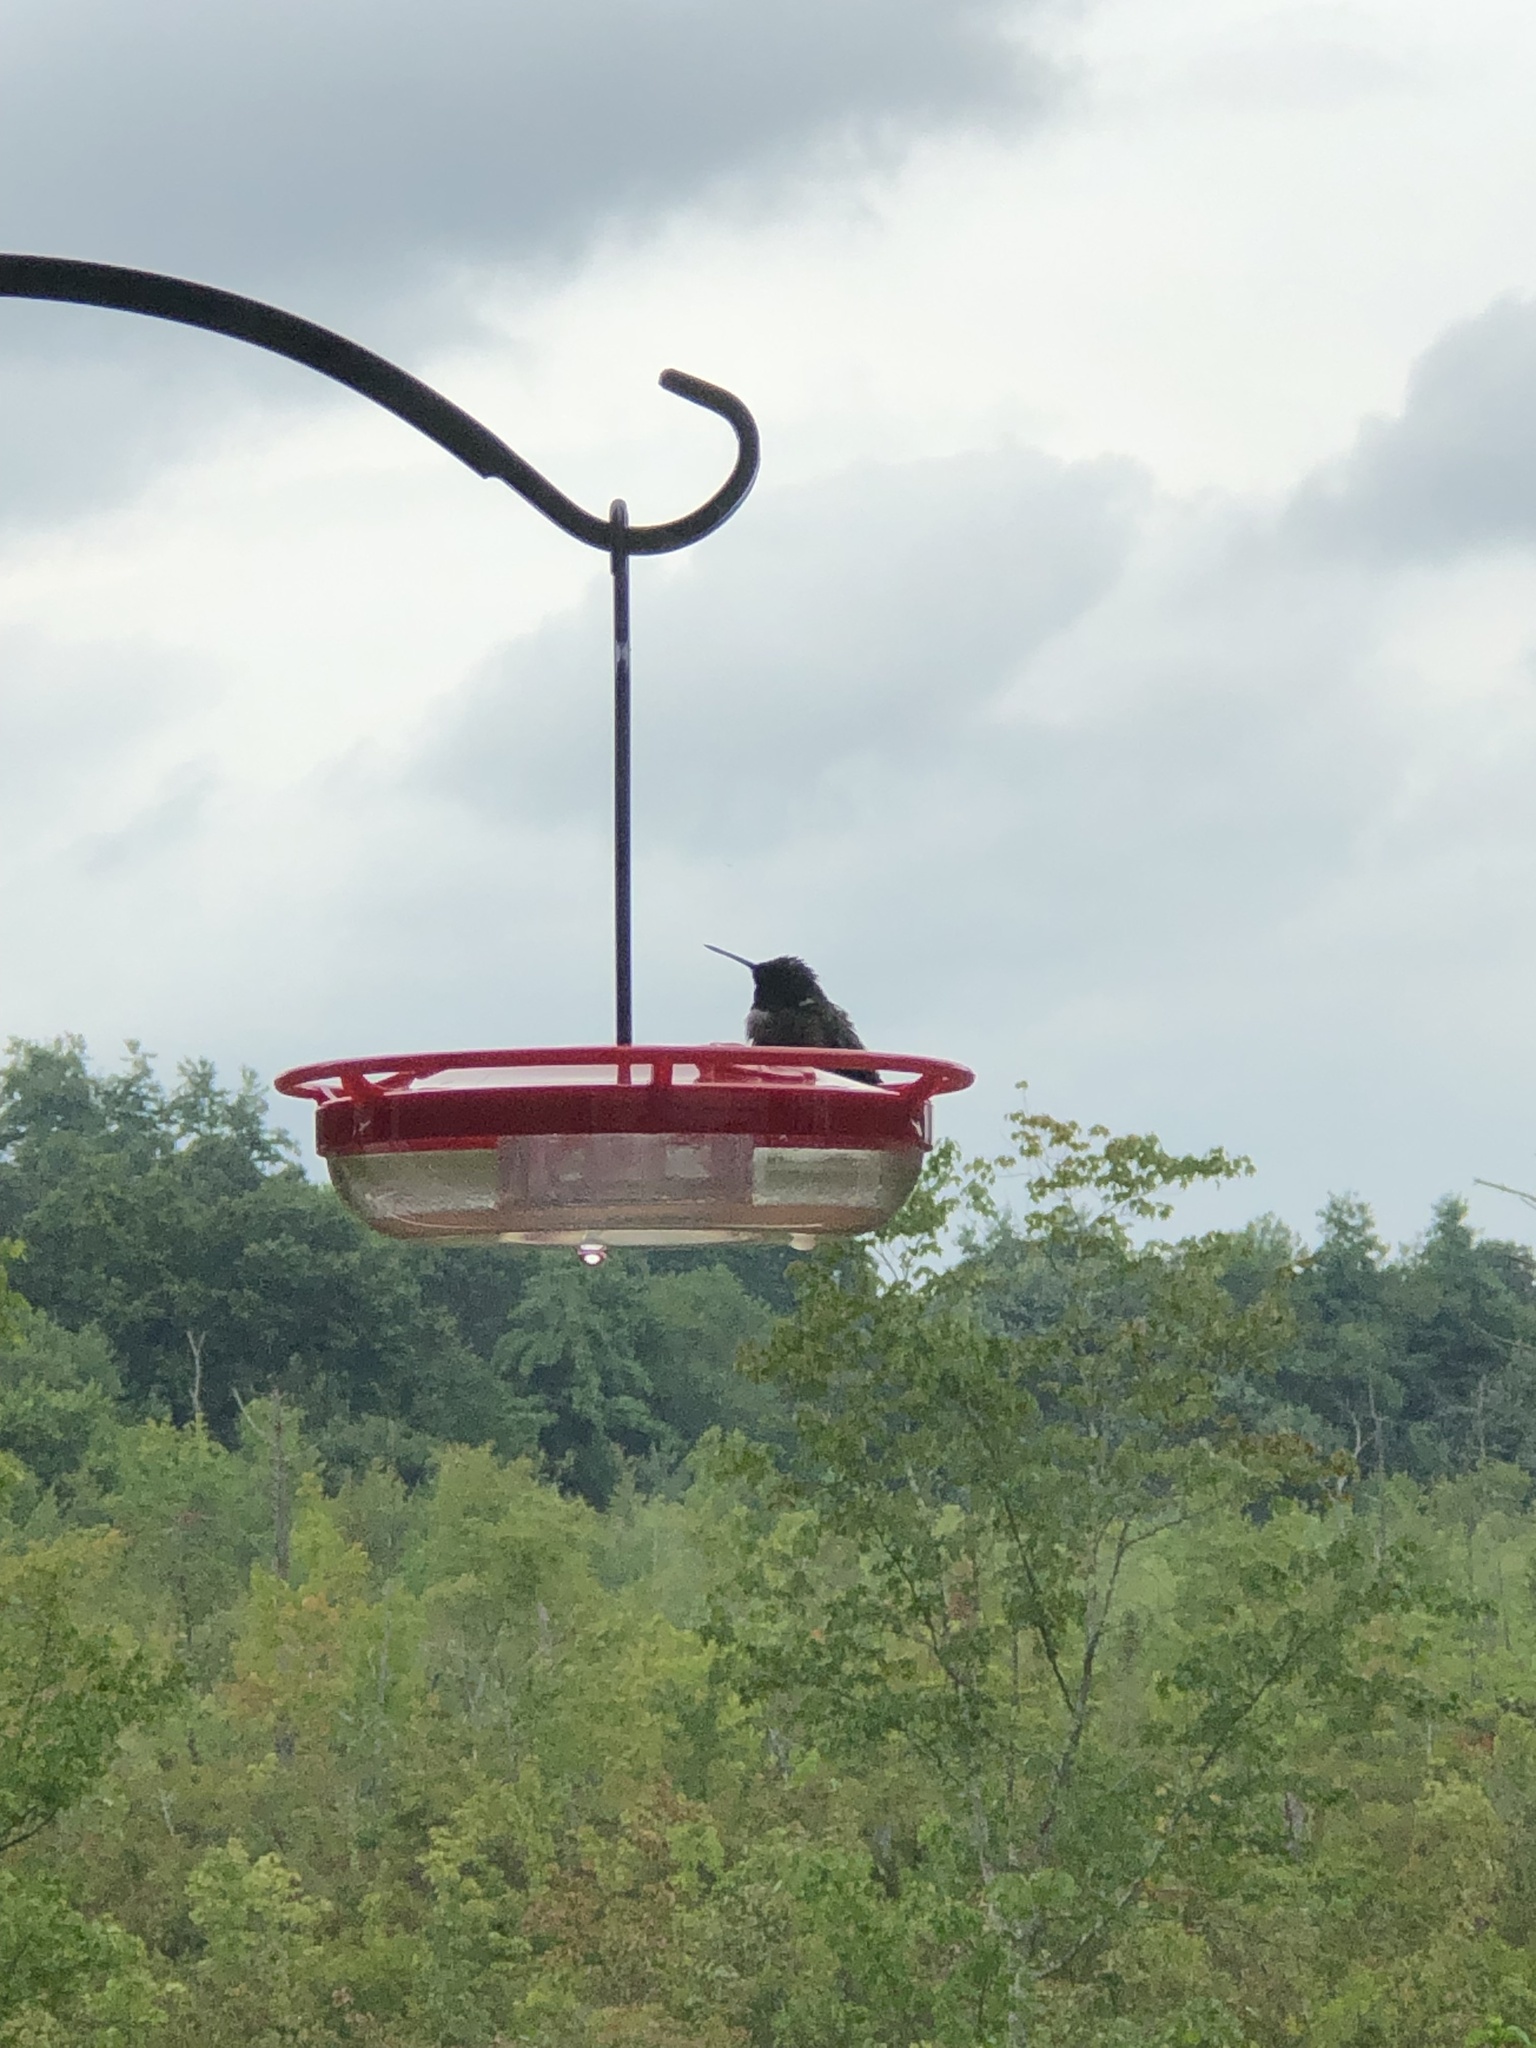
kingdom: Animalia
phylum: Chordata
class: Aves
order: Apodiformes
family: Trochilidae
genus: Archilochus
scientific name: Archilochus colubris
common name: Ruby-throated hummingbird
